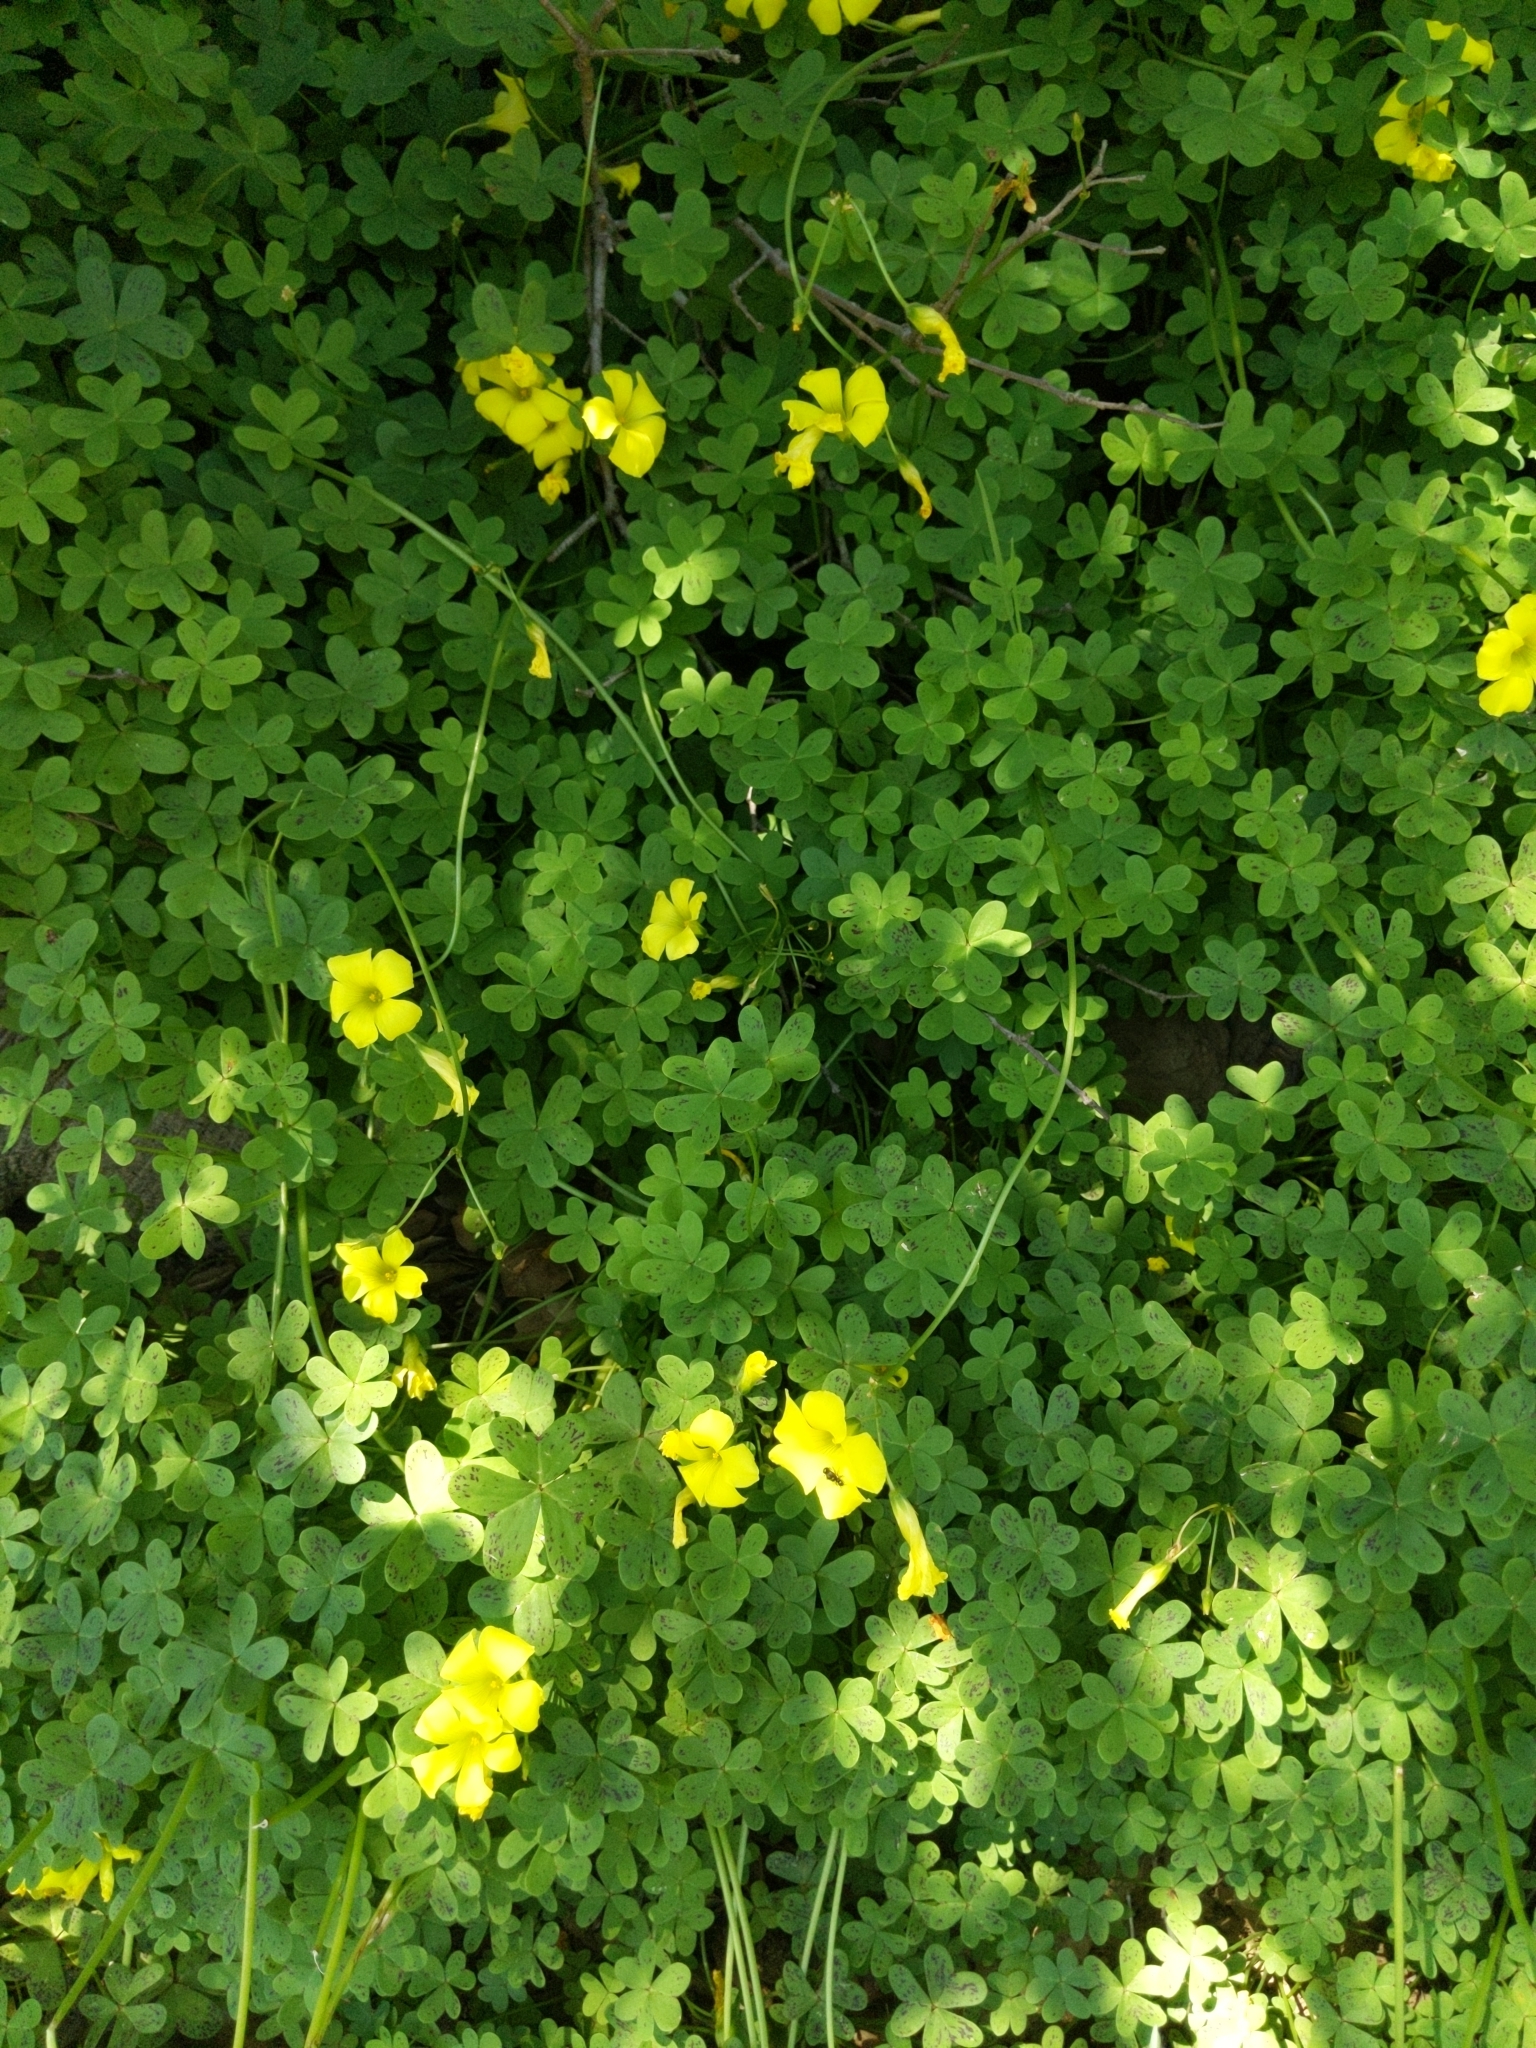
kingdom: Plantae
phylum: Tracheophyta
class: Magnoliopsida
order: Oxalidales
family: Oxalidaceae
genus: Oxalis
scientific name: Oxalis pes-caprae
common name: Bermuda-buttercup
